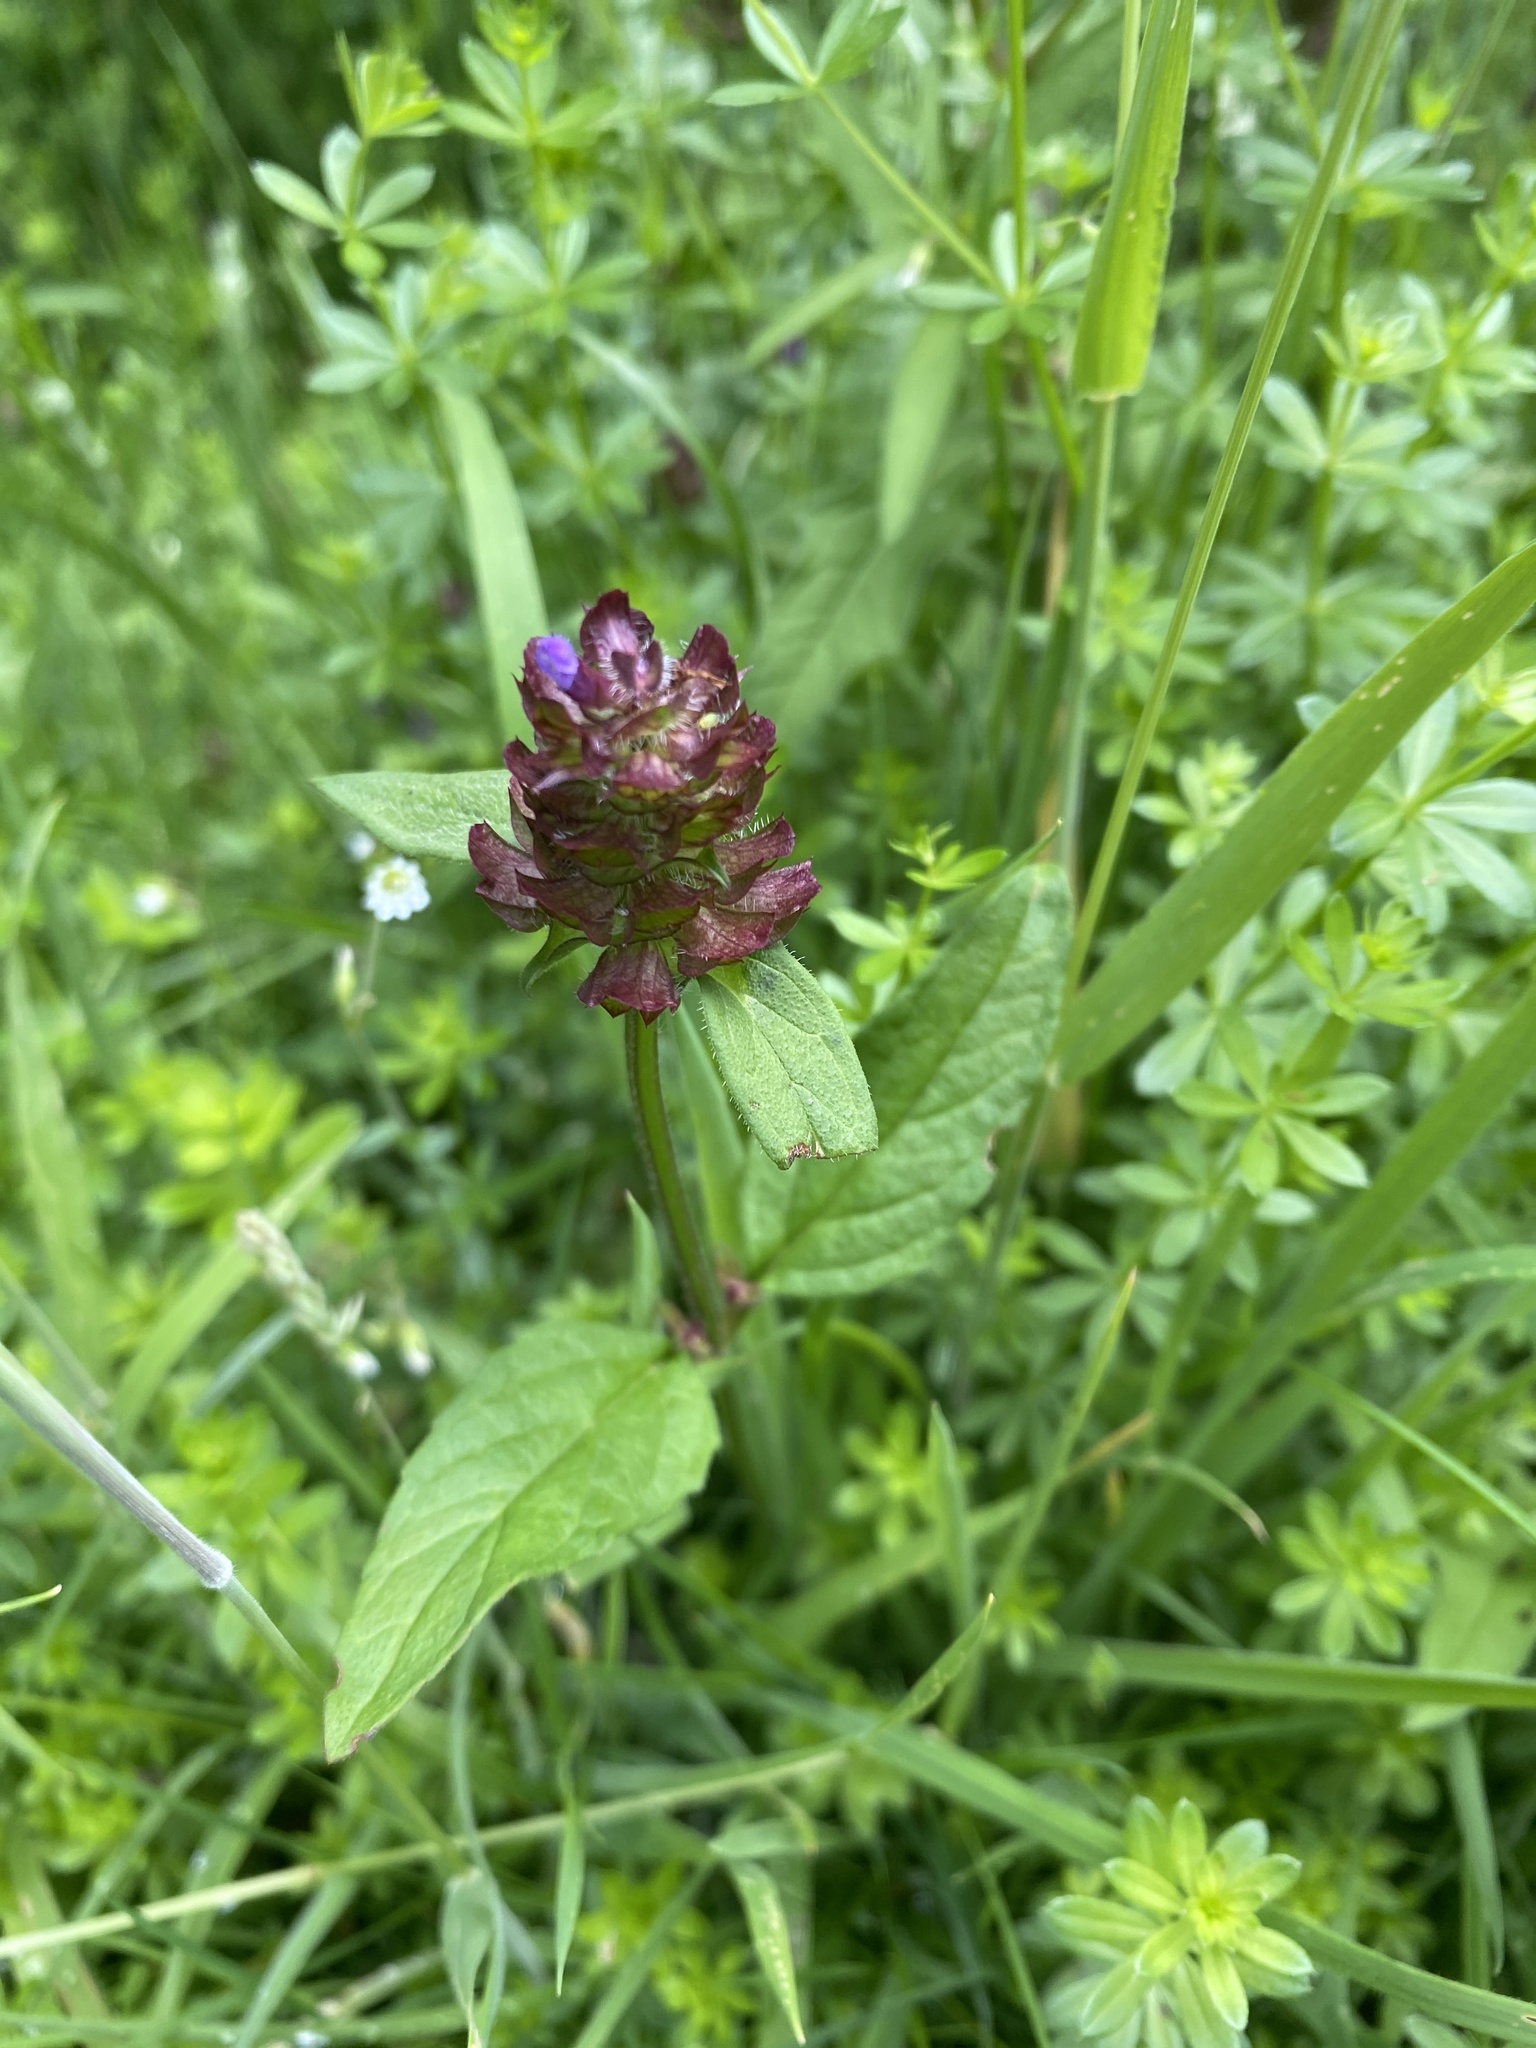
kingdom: Plantae
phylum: Tracheophyta
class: Magnoliopsida
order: Lamiales
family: Lamiaceae
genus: Prunella
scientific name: Prunella vulgaris
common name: Heal-all
